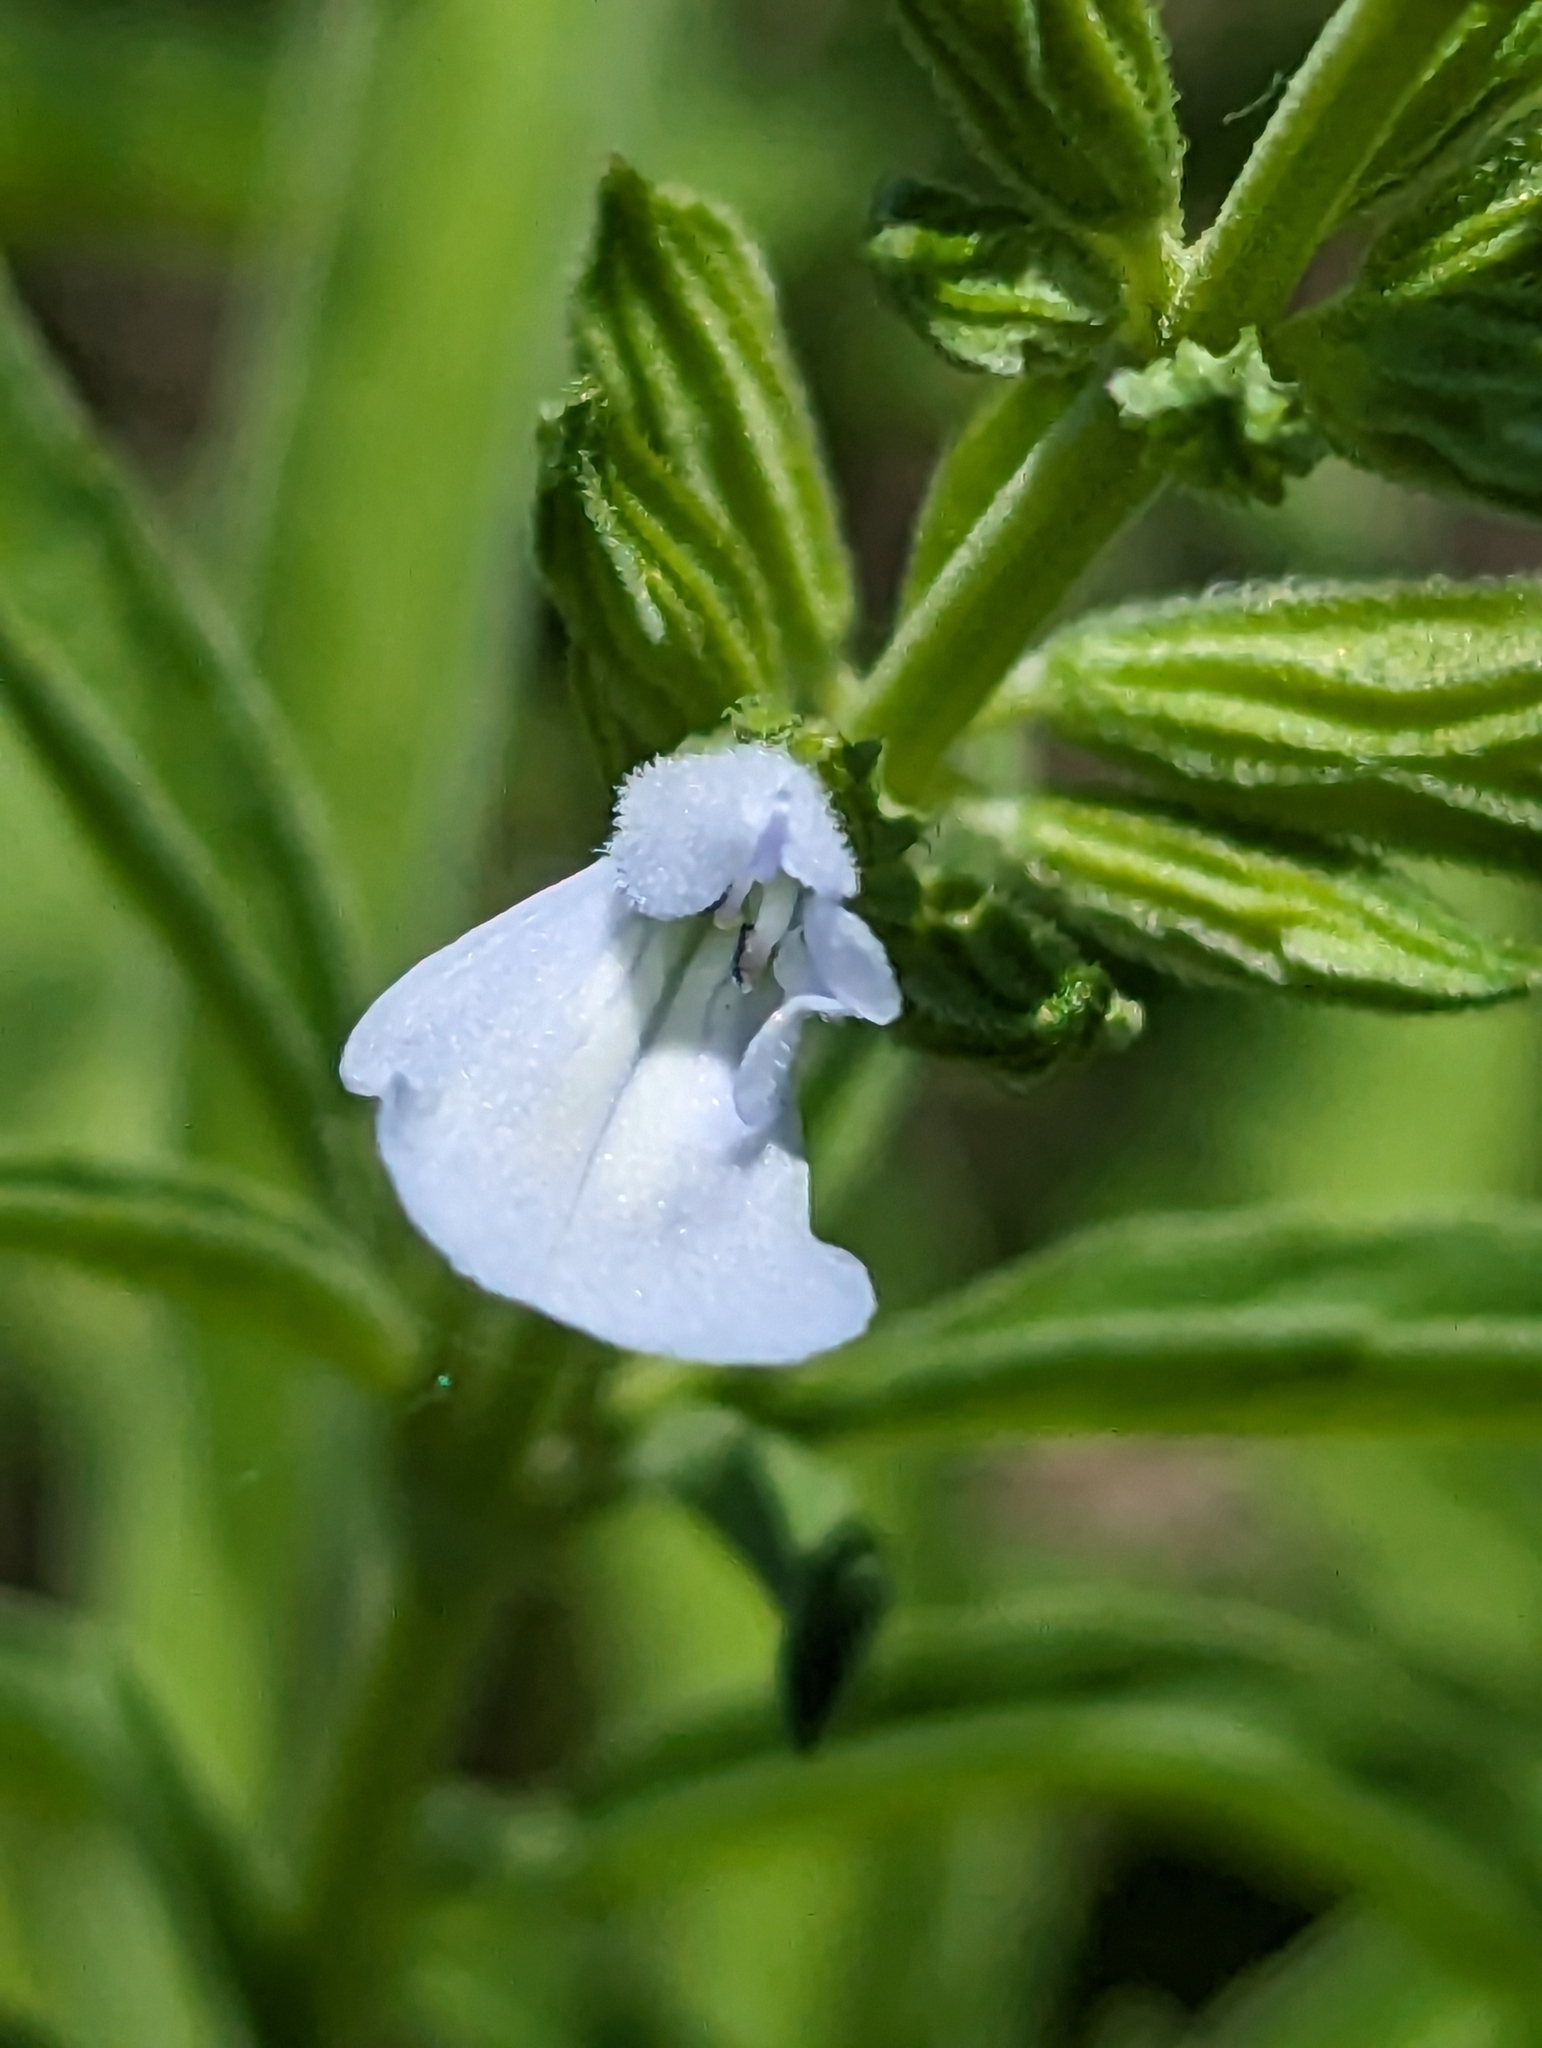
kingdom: Plantae
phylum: Tracheophyta
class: Magnoliopsida
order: Lamiales
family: Lamiaceae
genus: Salvia
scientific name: Salvia reflexa
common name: Mintweed
